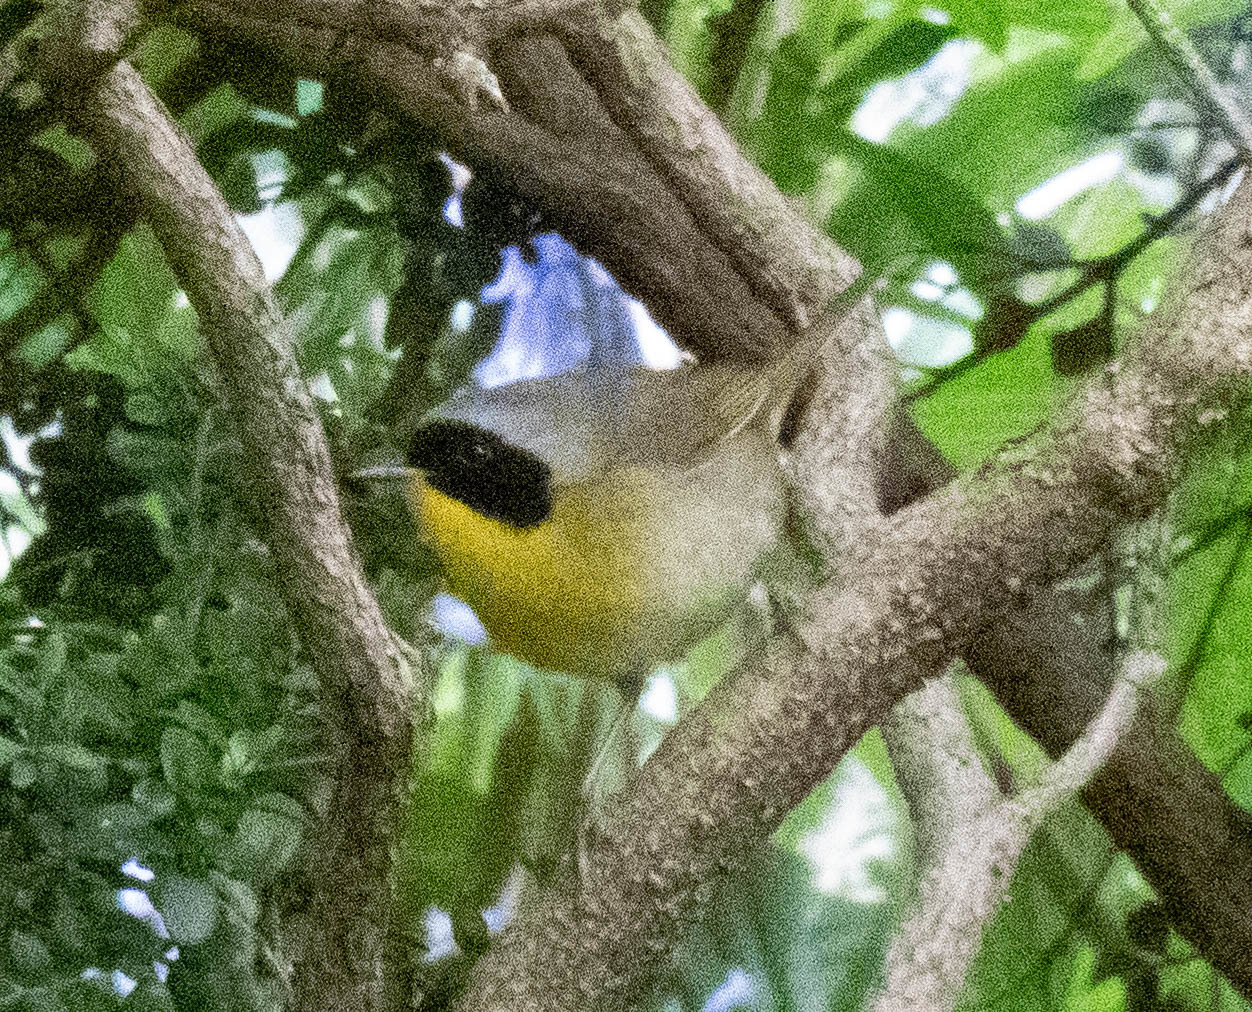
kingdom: Animalia
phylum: Chordata
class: Aves
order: Passeriformes
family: Parulidae
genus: Geothlypis
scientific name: Geothlypis trichas
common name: Common yellowthroat
